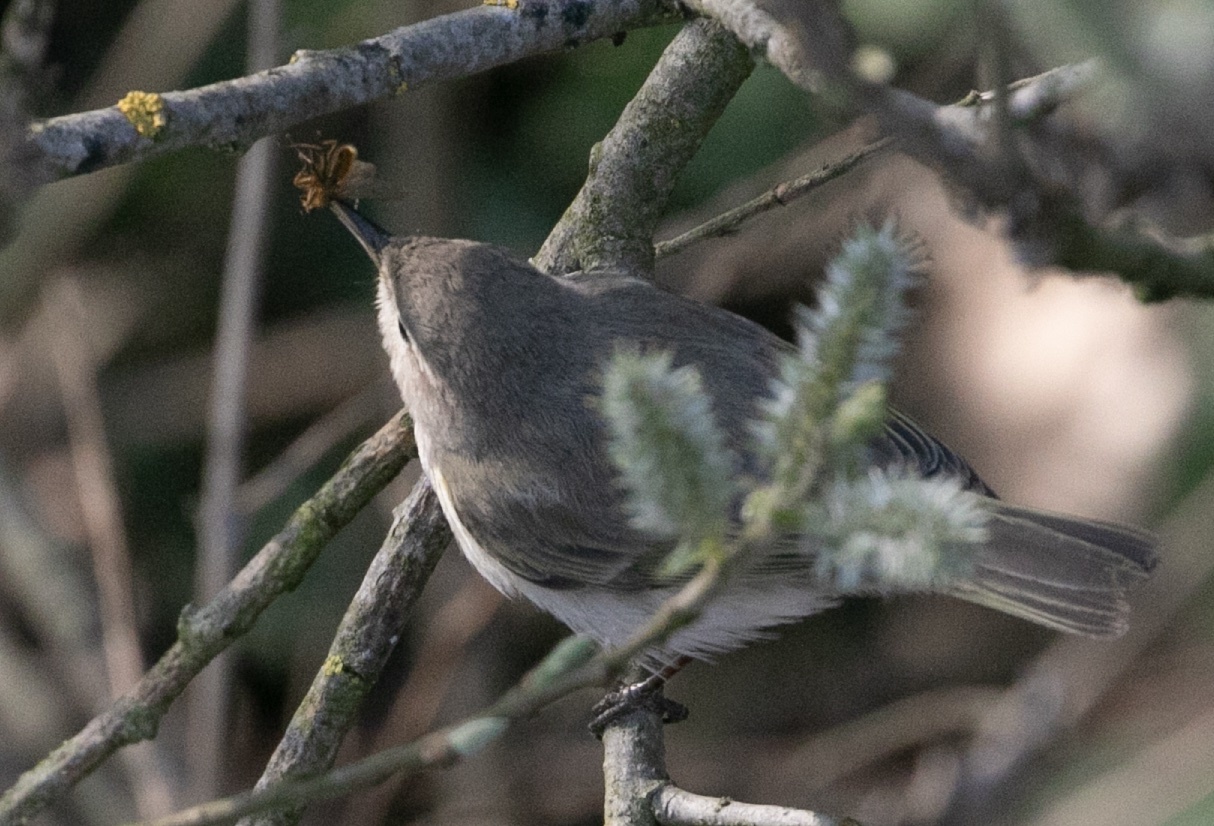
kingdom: Animalia
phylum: Chordata
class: Aves
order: Passeriformes
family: Phylloscopidae
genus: Phylloscopus
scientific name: Phylloscopus collybita
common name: Common chiffchaff
